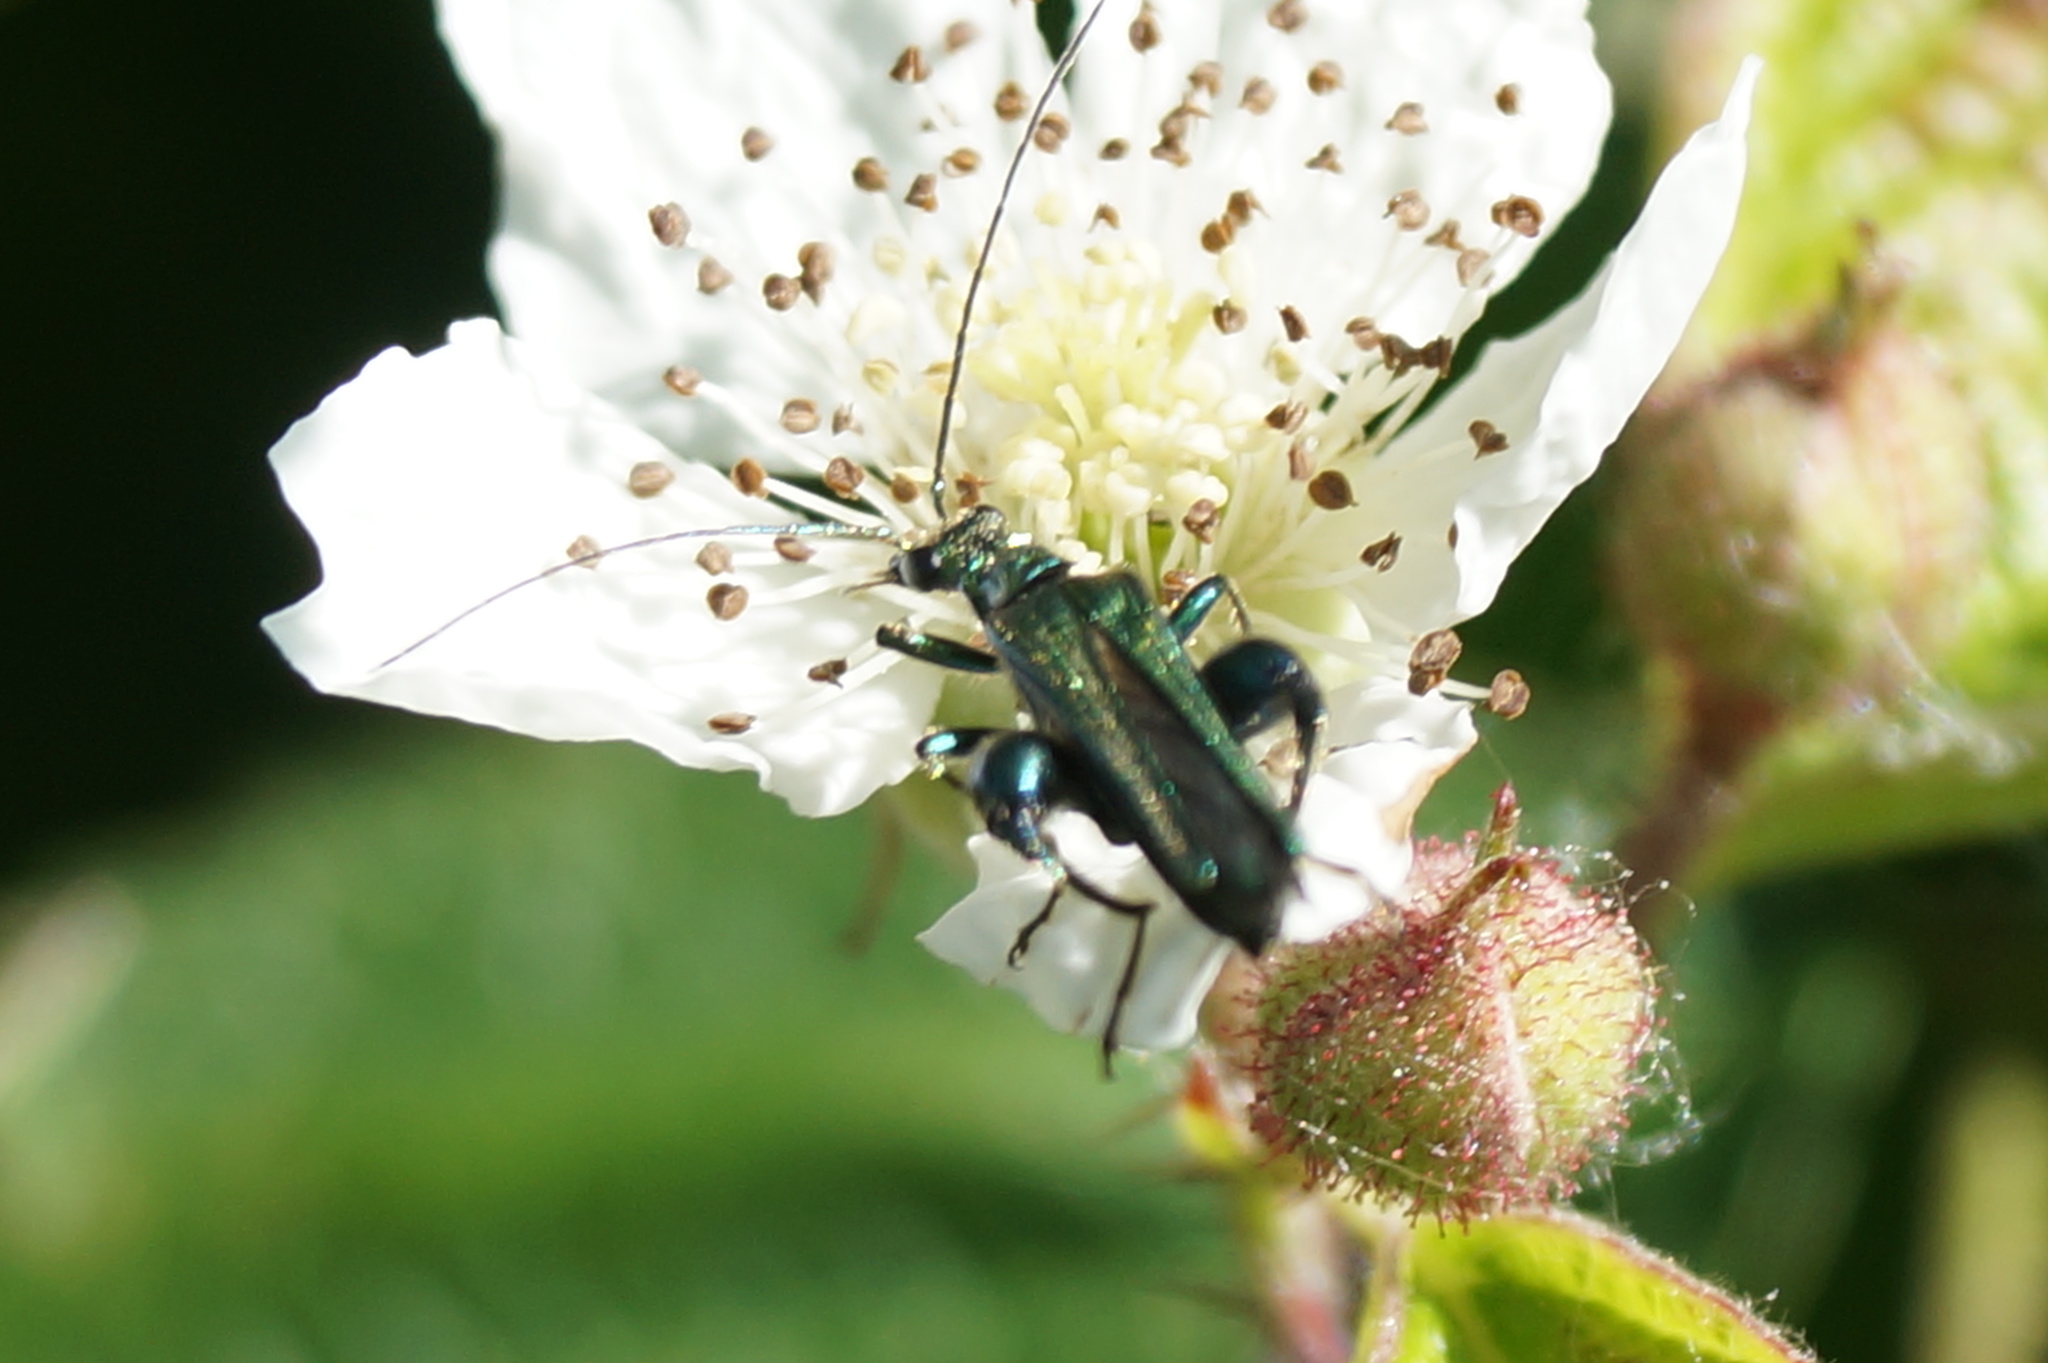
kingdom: Animalia
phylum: Arthropoda
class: Insecta
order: Coleoptera
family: Oedemeridae
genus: Oedemera
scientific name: Oedemera nobilis
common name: Swollen-thighed beetle
